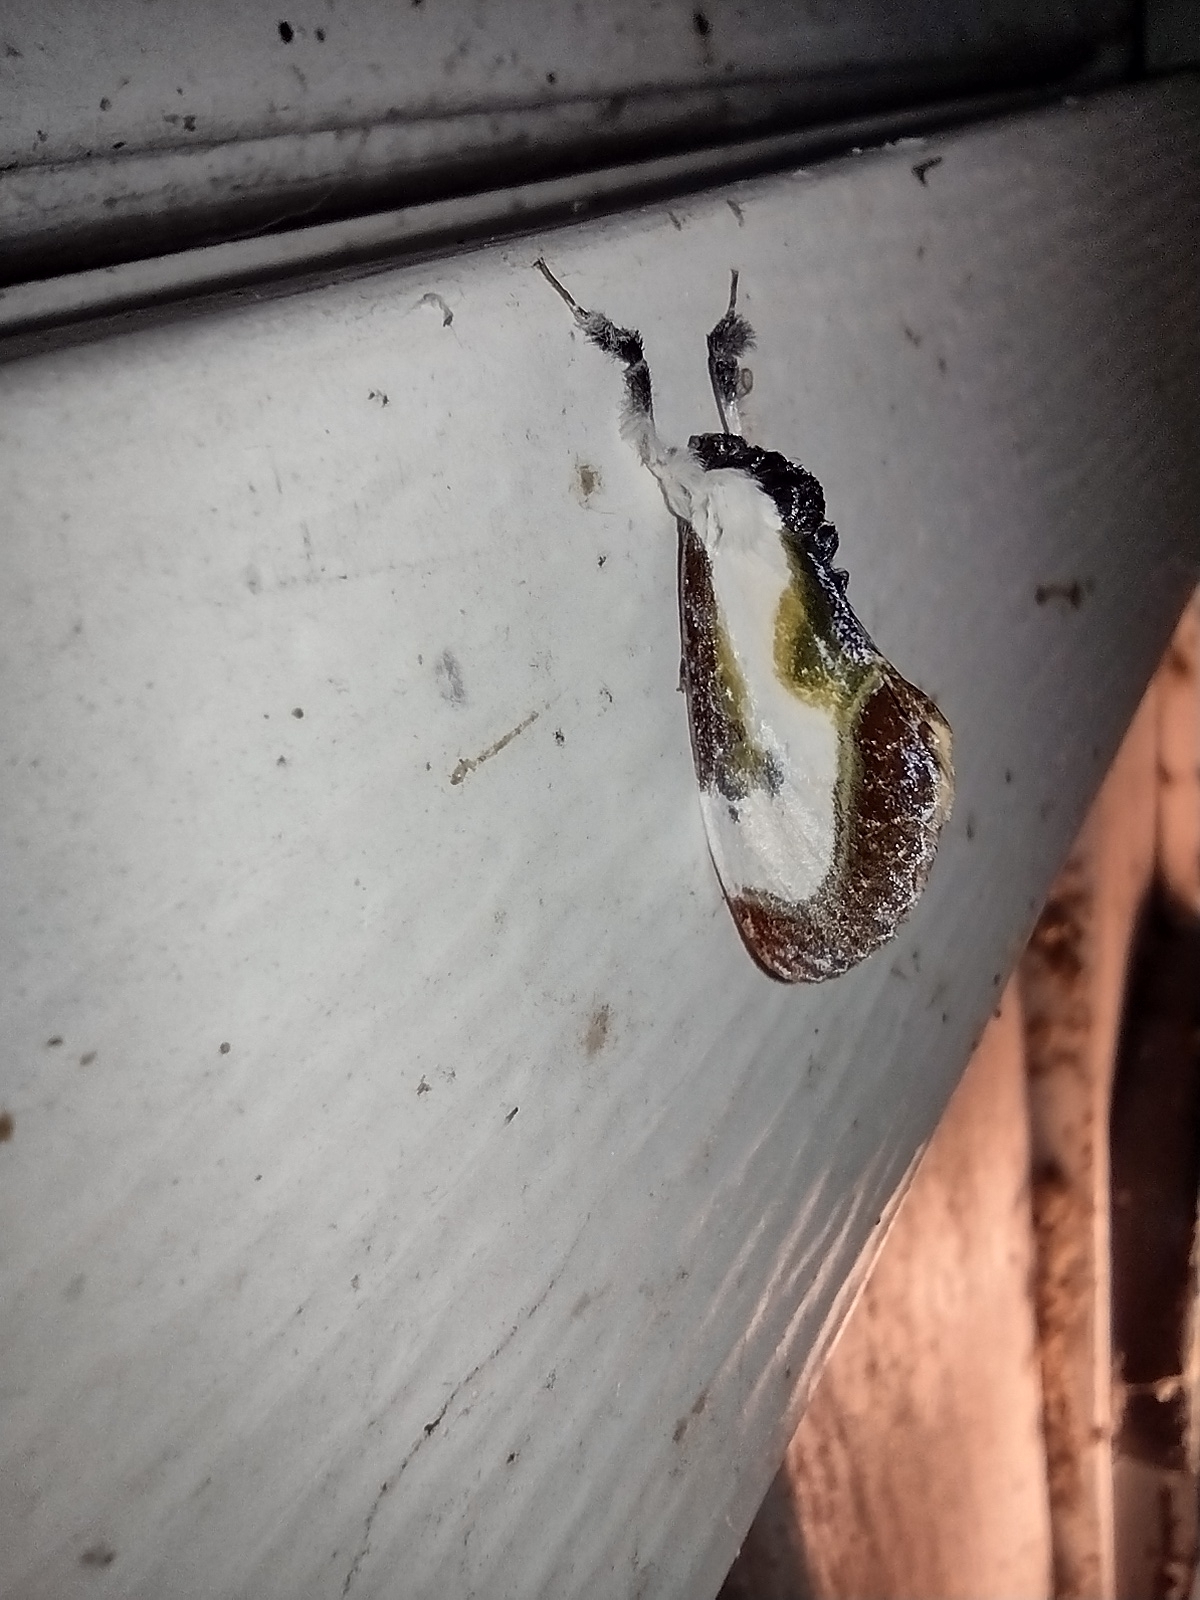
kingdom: Animalia
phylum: Arthropoda
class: Insecta
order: Lepidoptera
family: Noctuidae
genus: Eudryas
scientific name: Eudryas grata
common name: Beautiful wood-nymph
